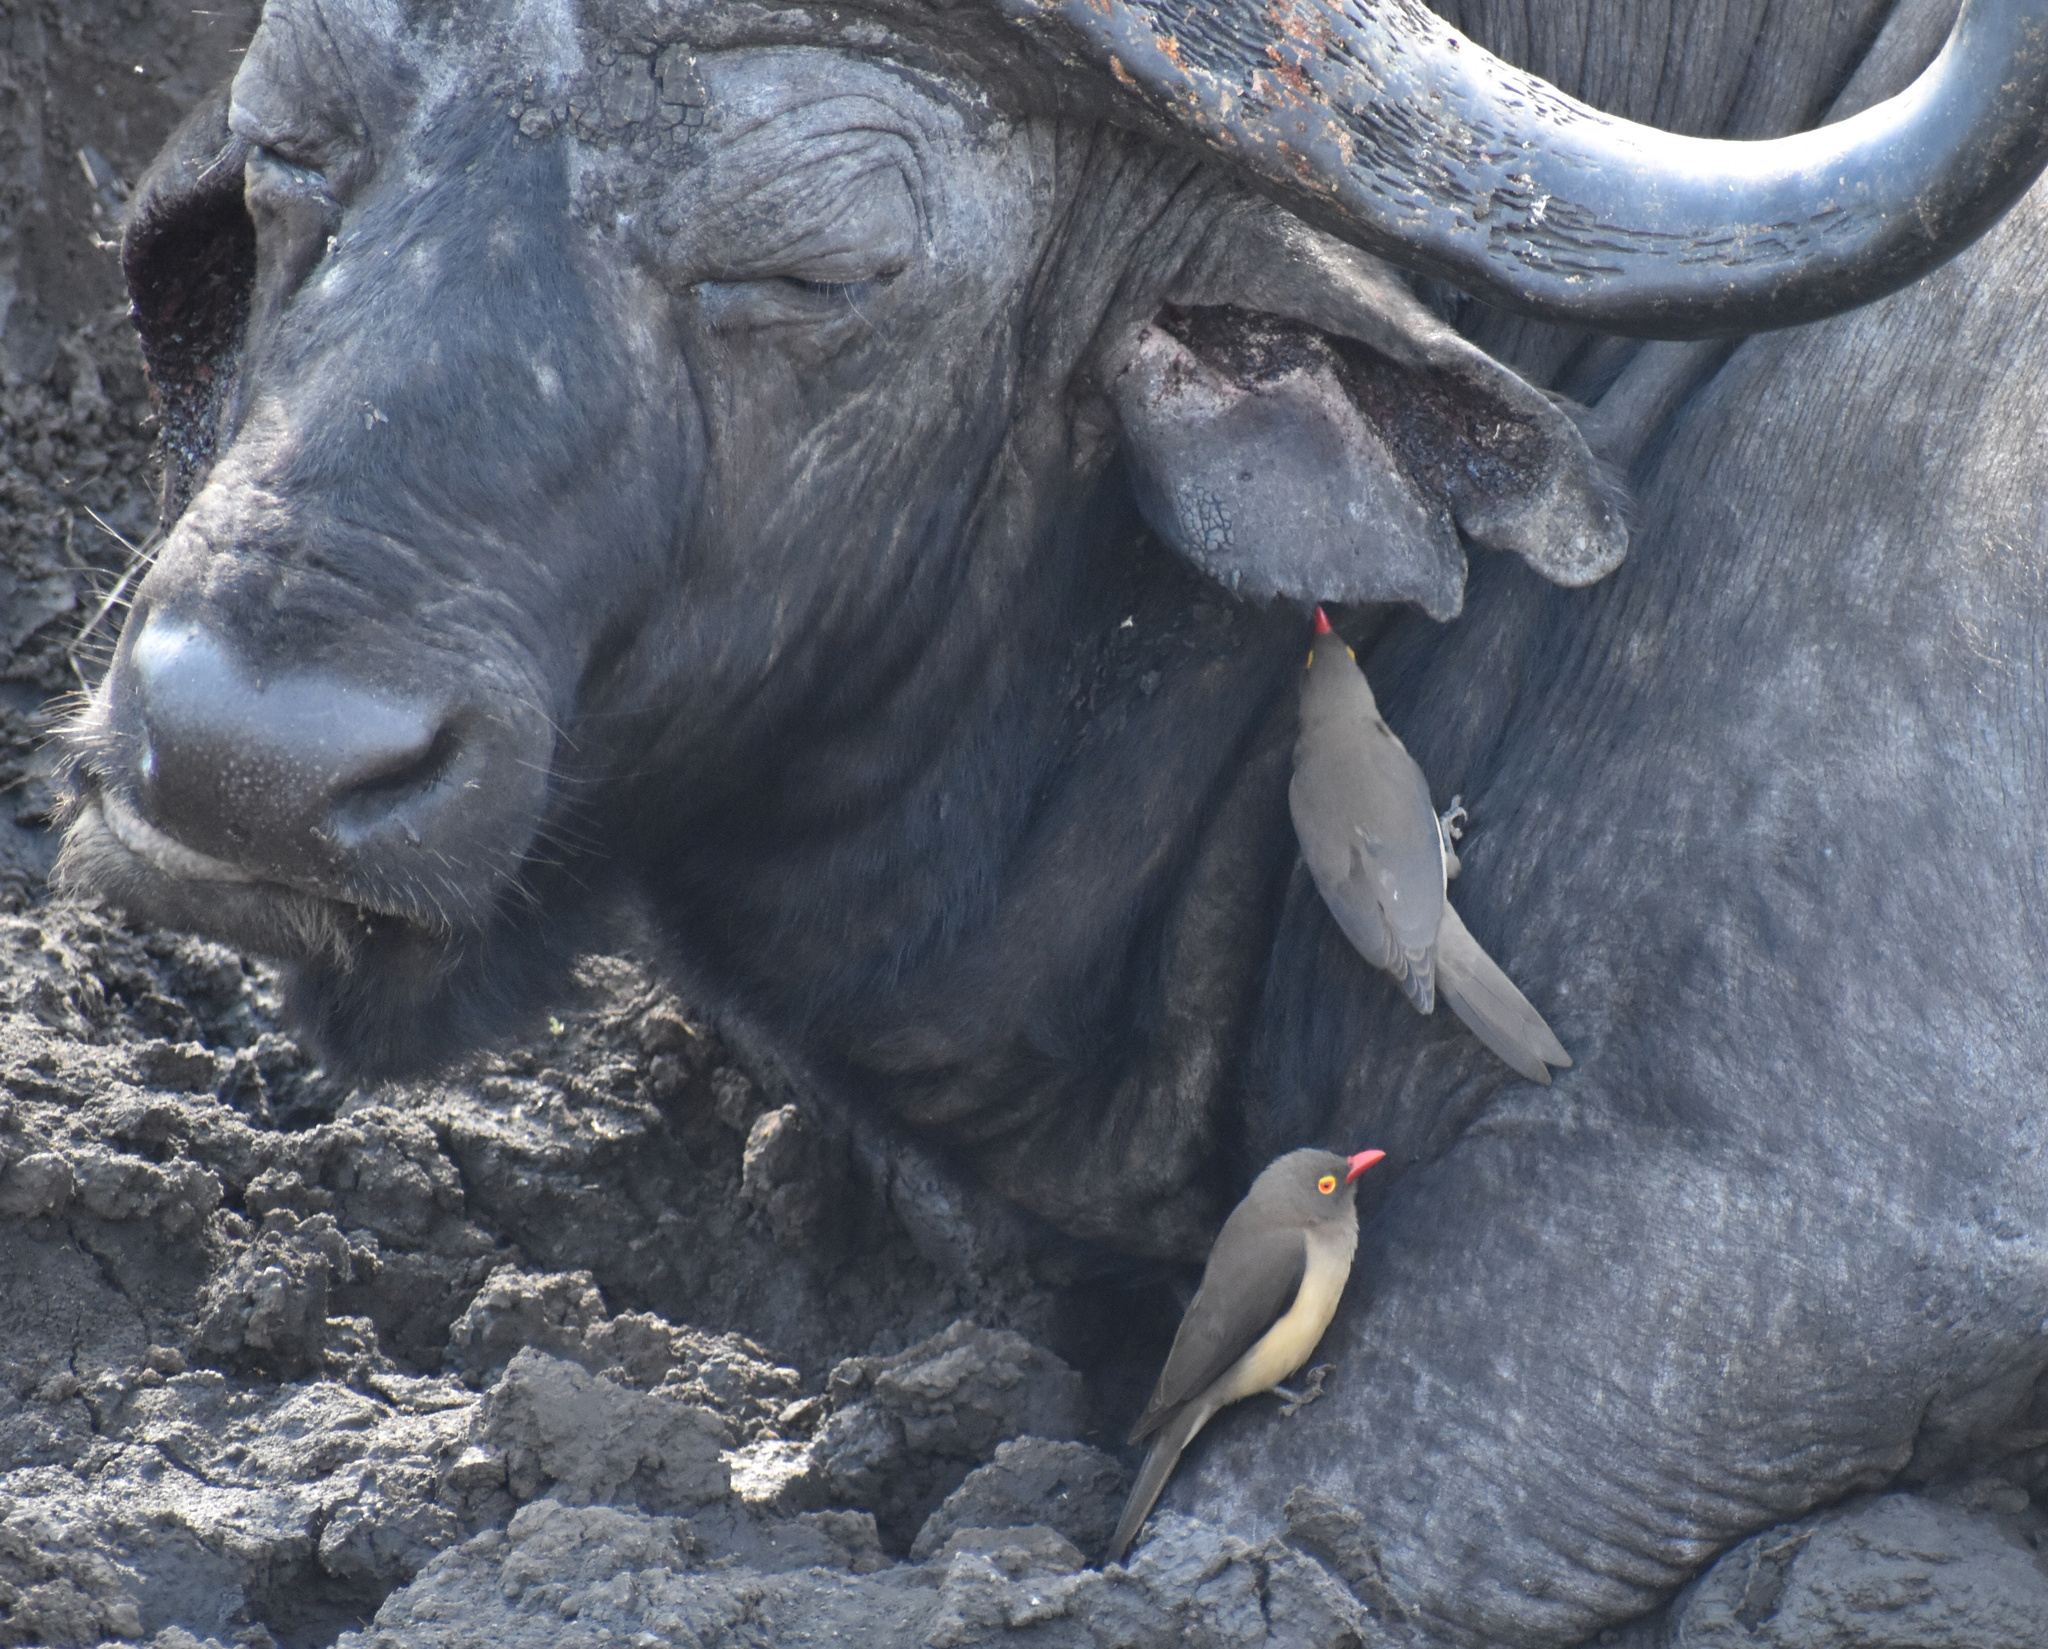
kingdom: Animalia
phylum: Chordata
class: Aves
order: Passeriformes
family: Buphagidae
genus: Buphagus
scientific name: Buphagus erythrorhynchus
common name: Red-billed oxpecker
